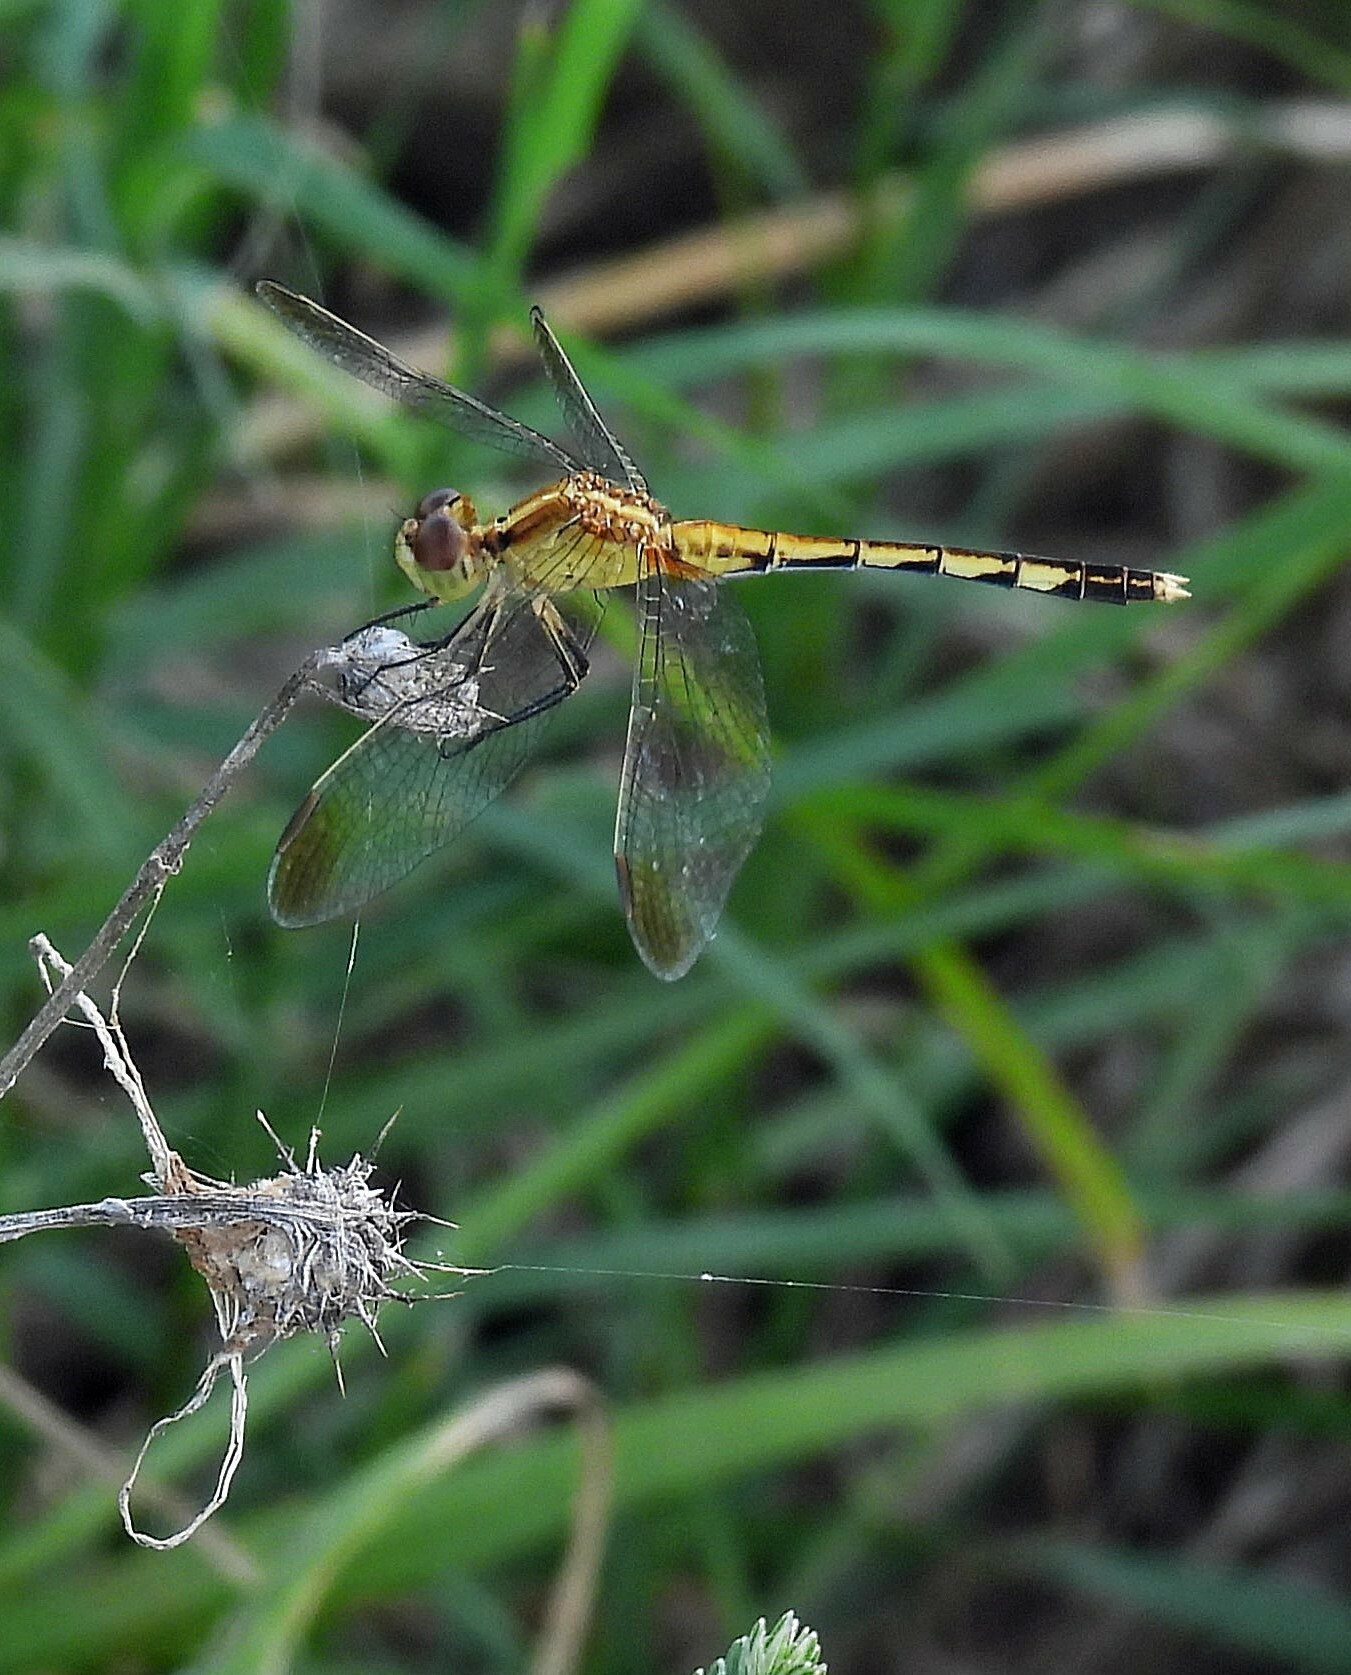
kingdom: Animalia
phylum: Arthropoda
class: Insecta
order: Odonata
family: Libellulidae
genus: Erythrodiplax
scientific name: Erythrodiplax nigricans
